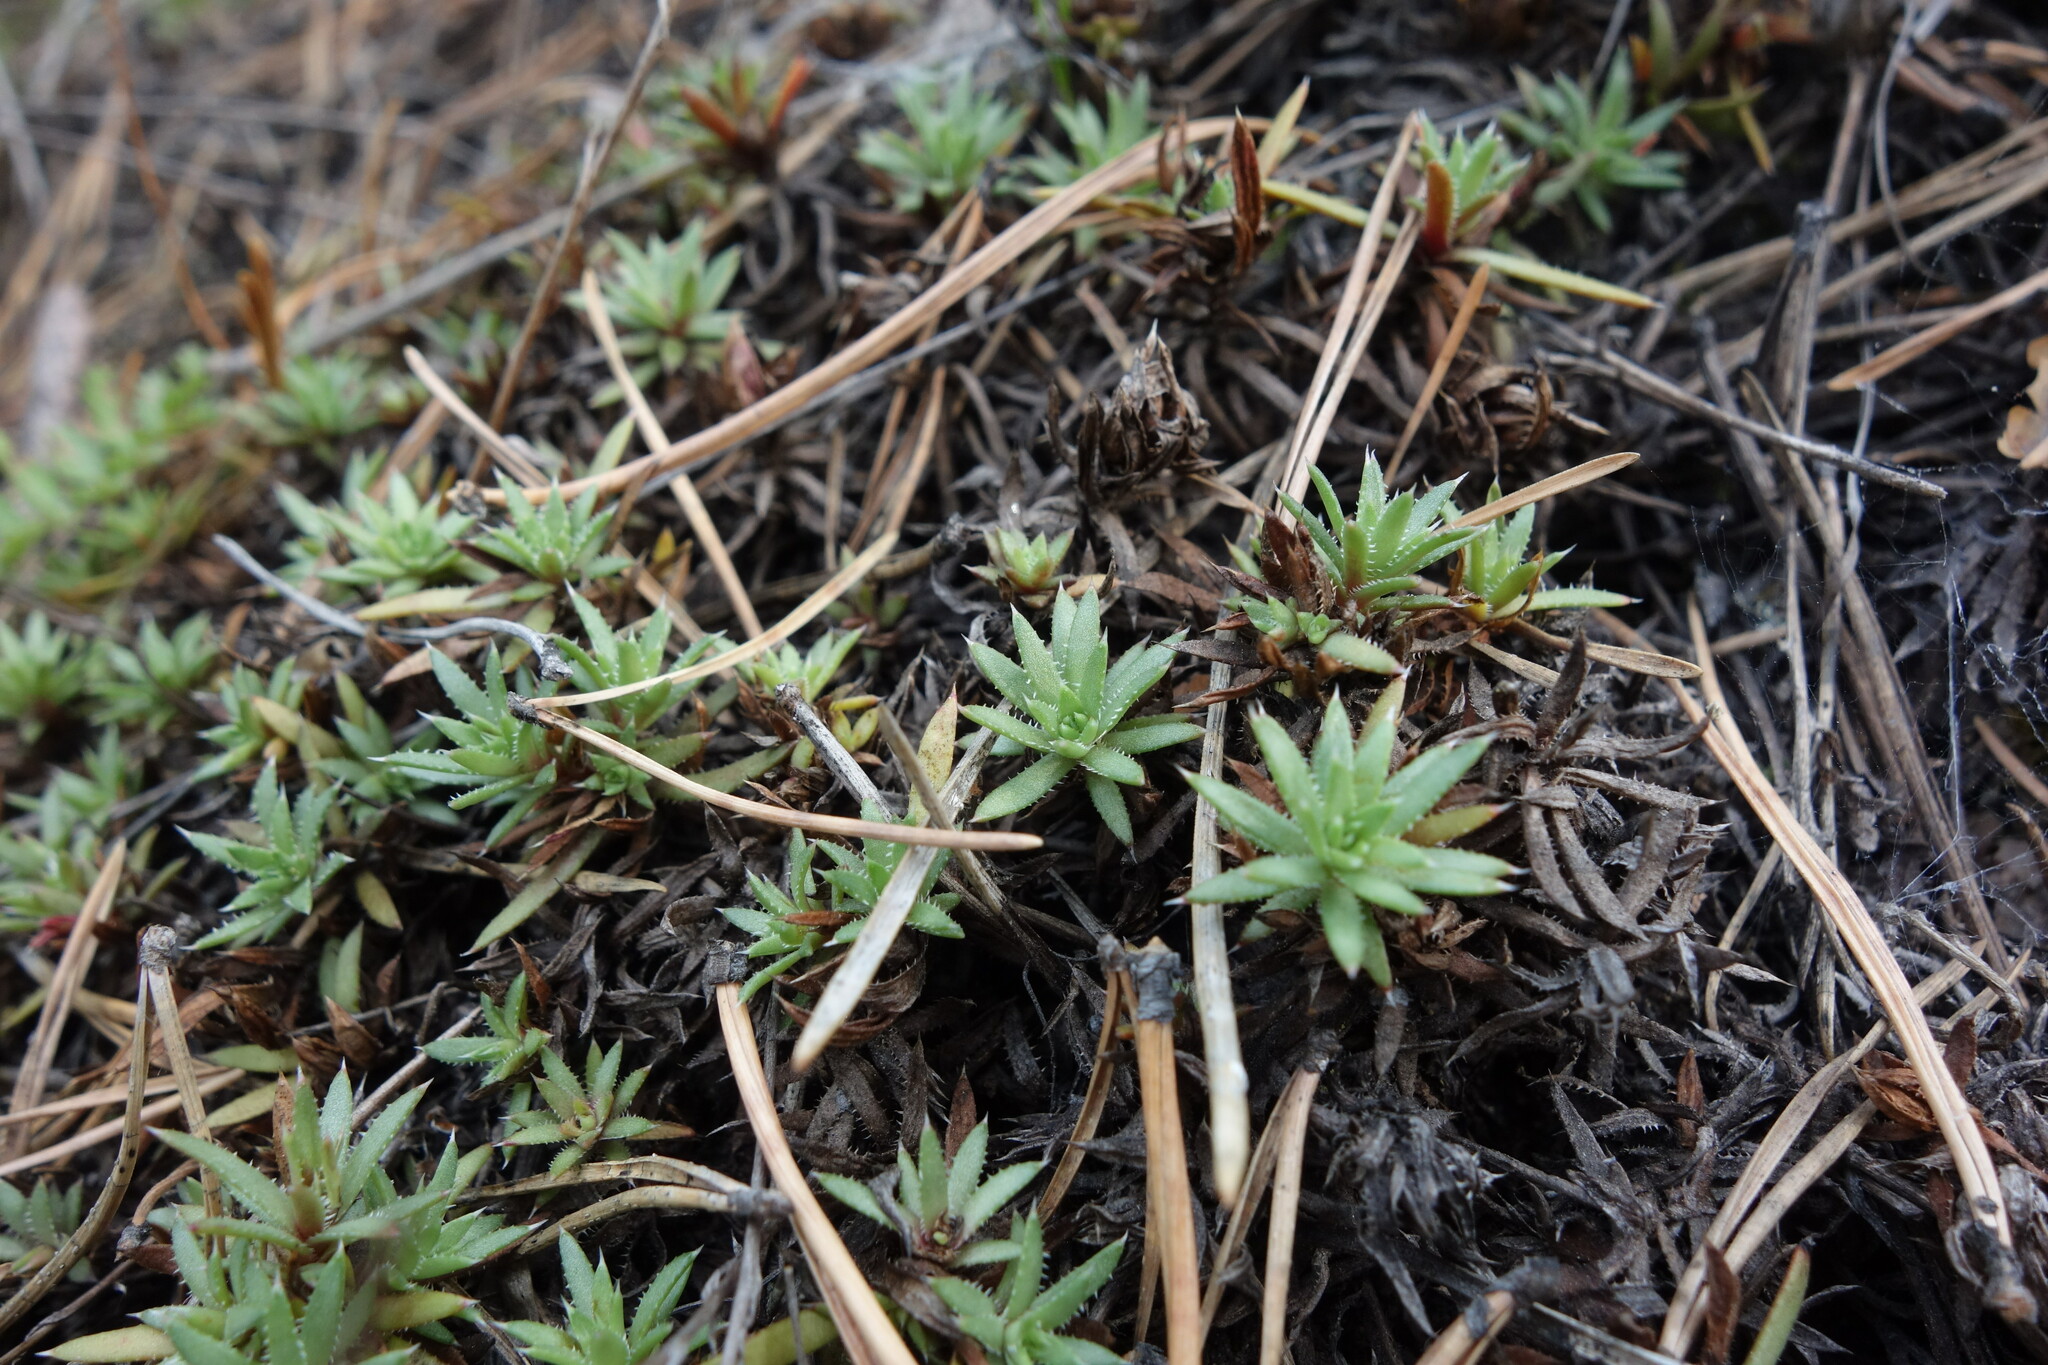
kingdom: Plantae
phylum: Tracheophyta
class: Magnoliopsida
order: Saxifragales
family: Saxifragaceae
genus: Saxifraga
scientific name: Saxifraga
